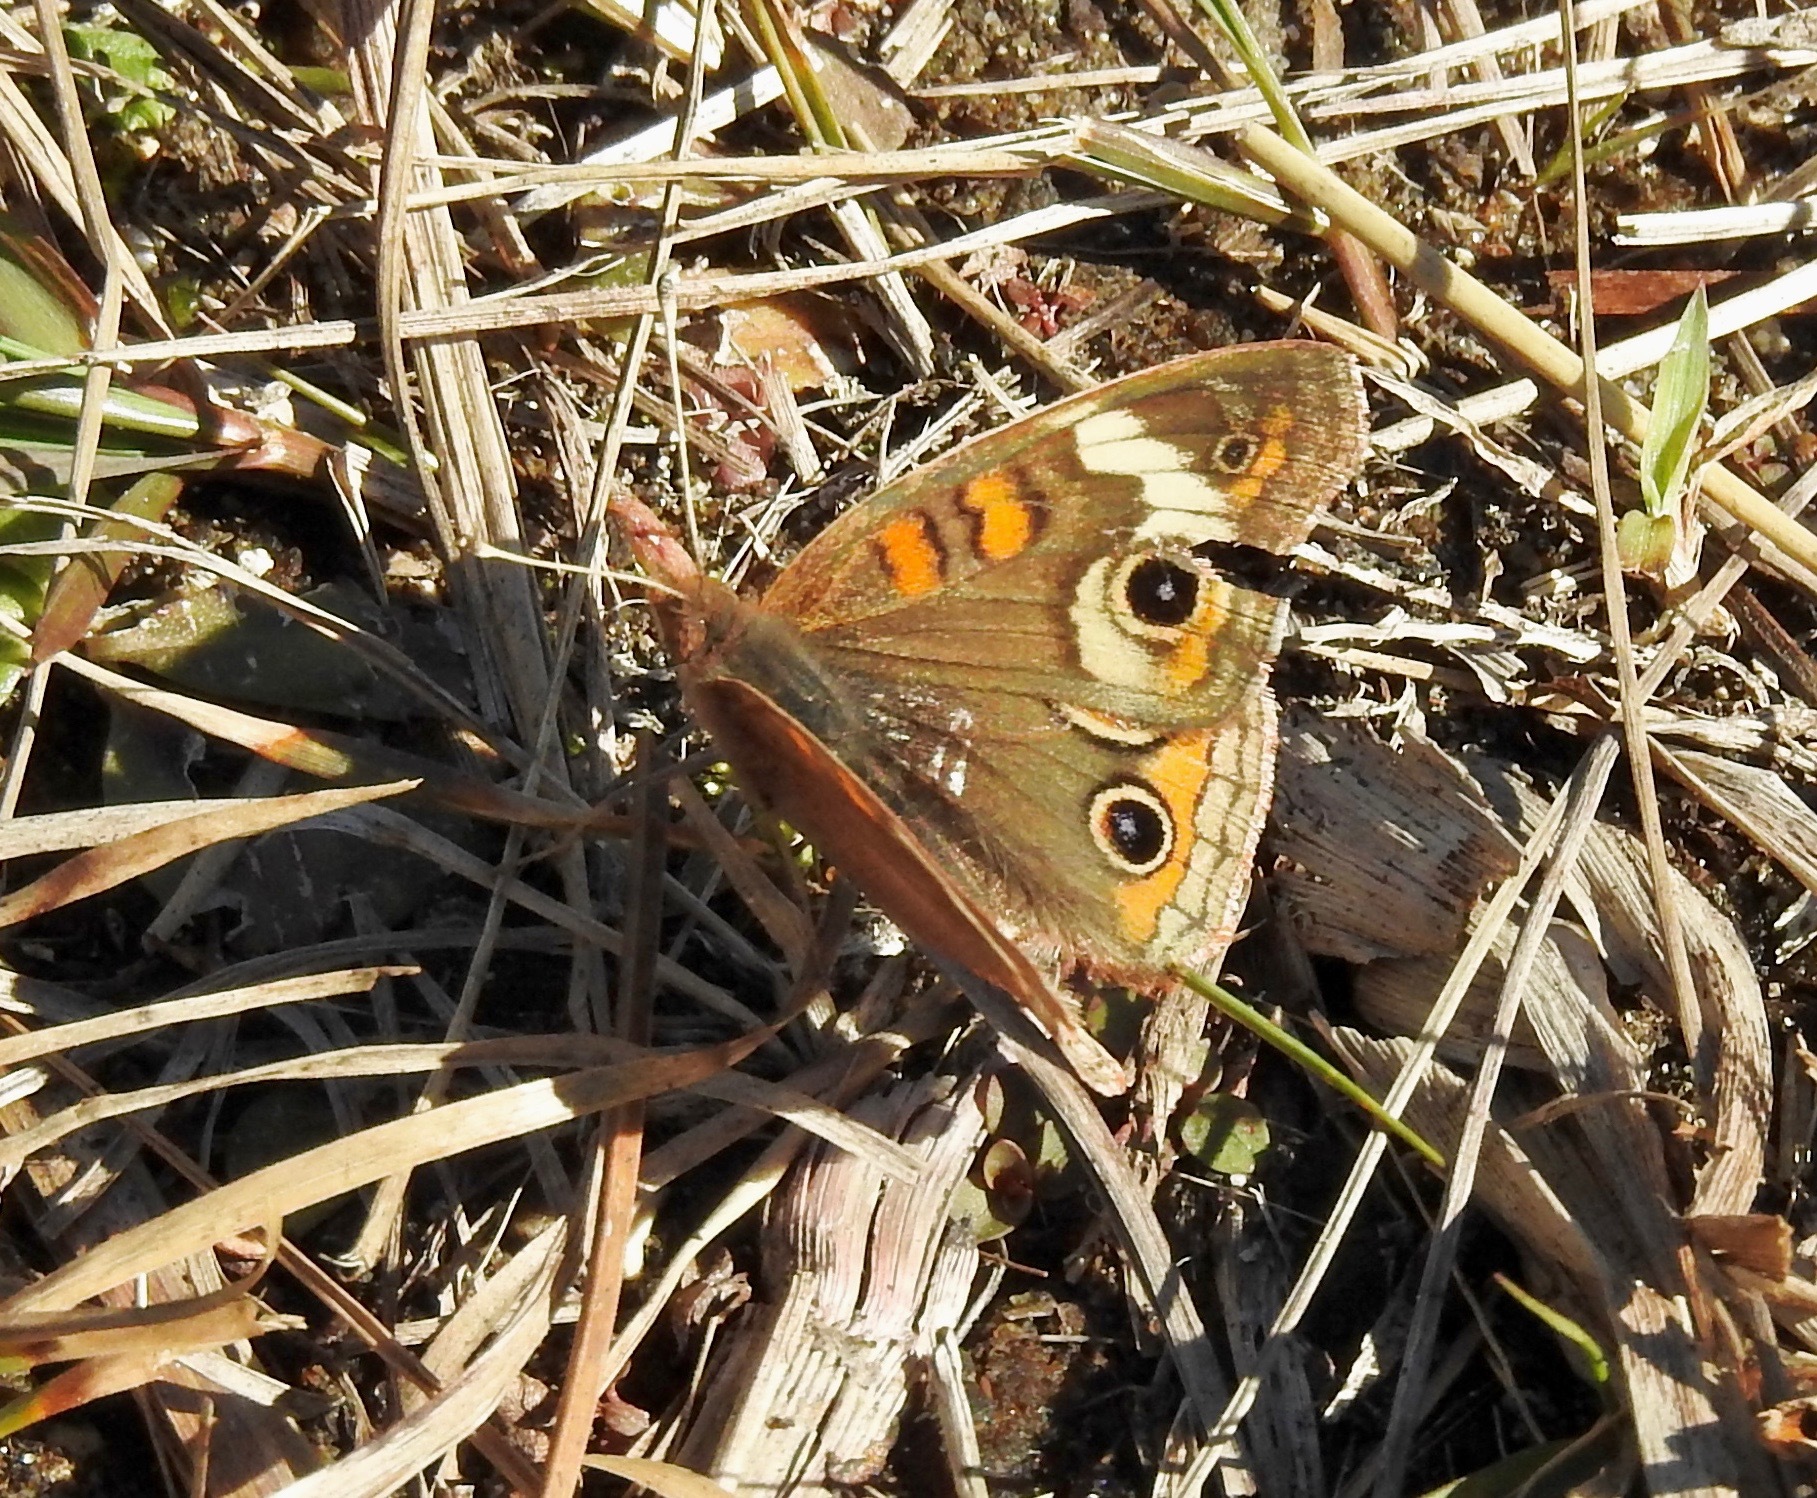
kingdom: Animalia
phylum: Arthropoda
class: Insecta
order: Lepidoptera
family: Nymphalidae
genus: Junonia
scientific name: Junonia coenia
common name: Common buckeye
